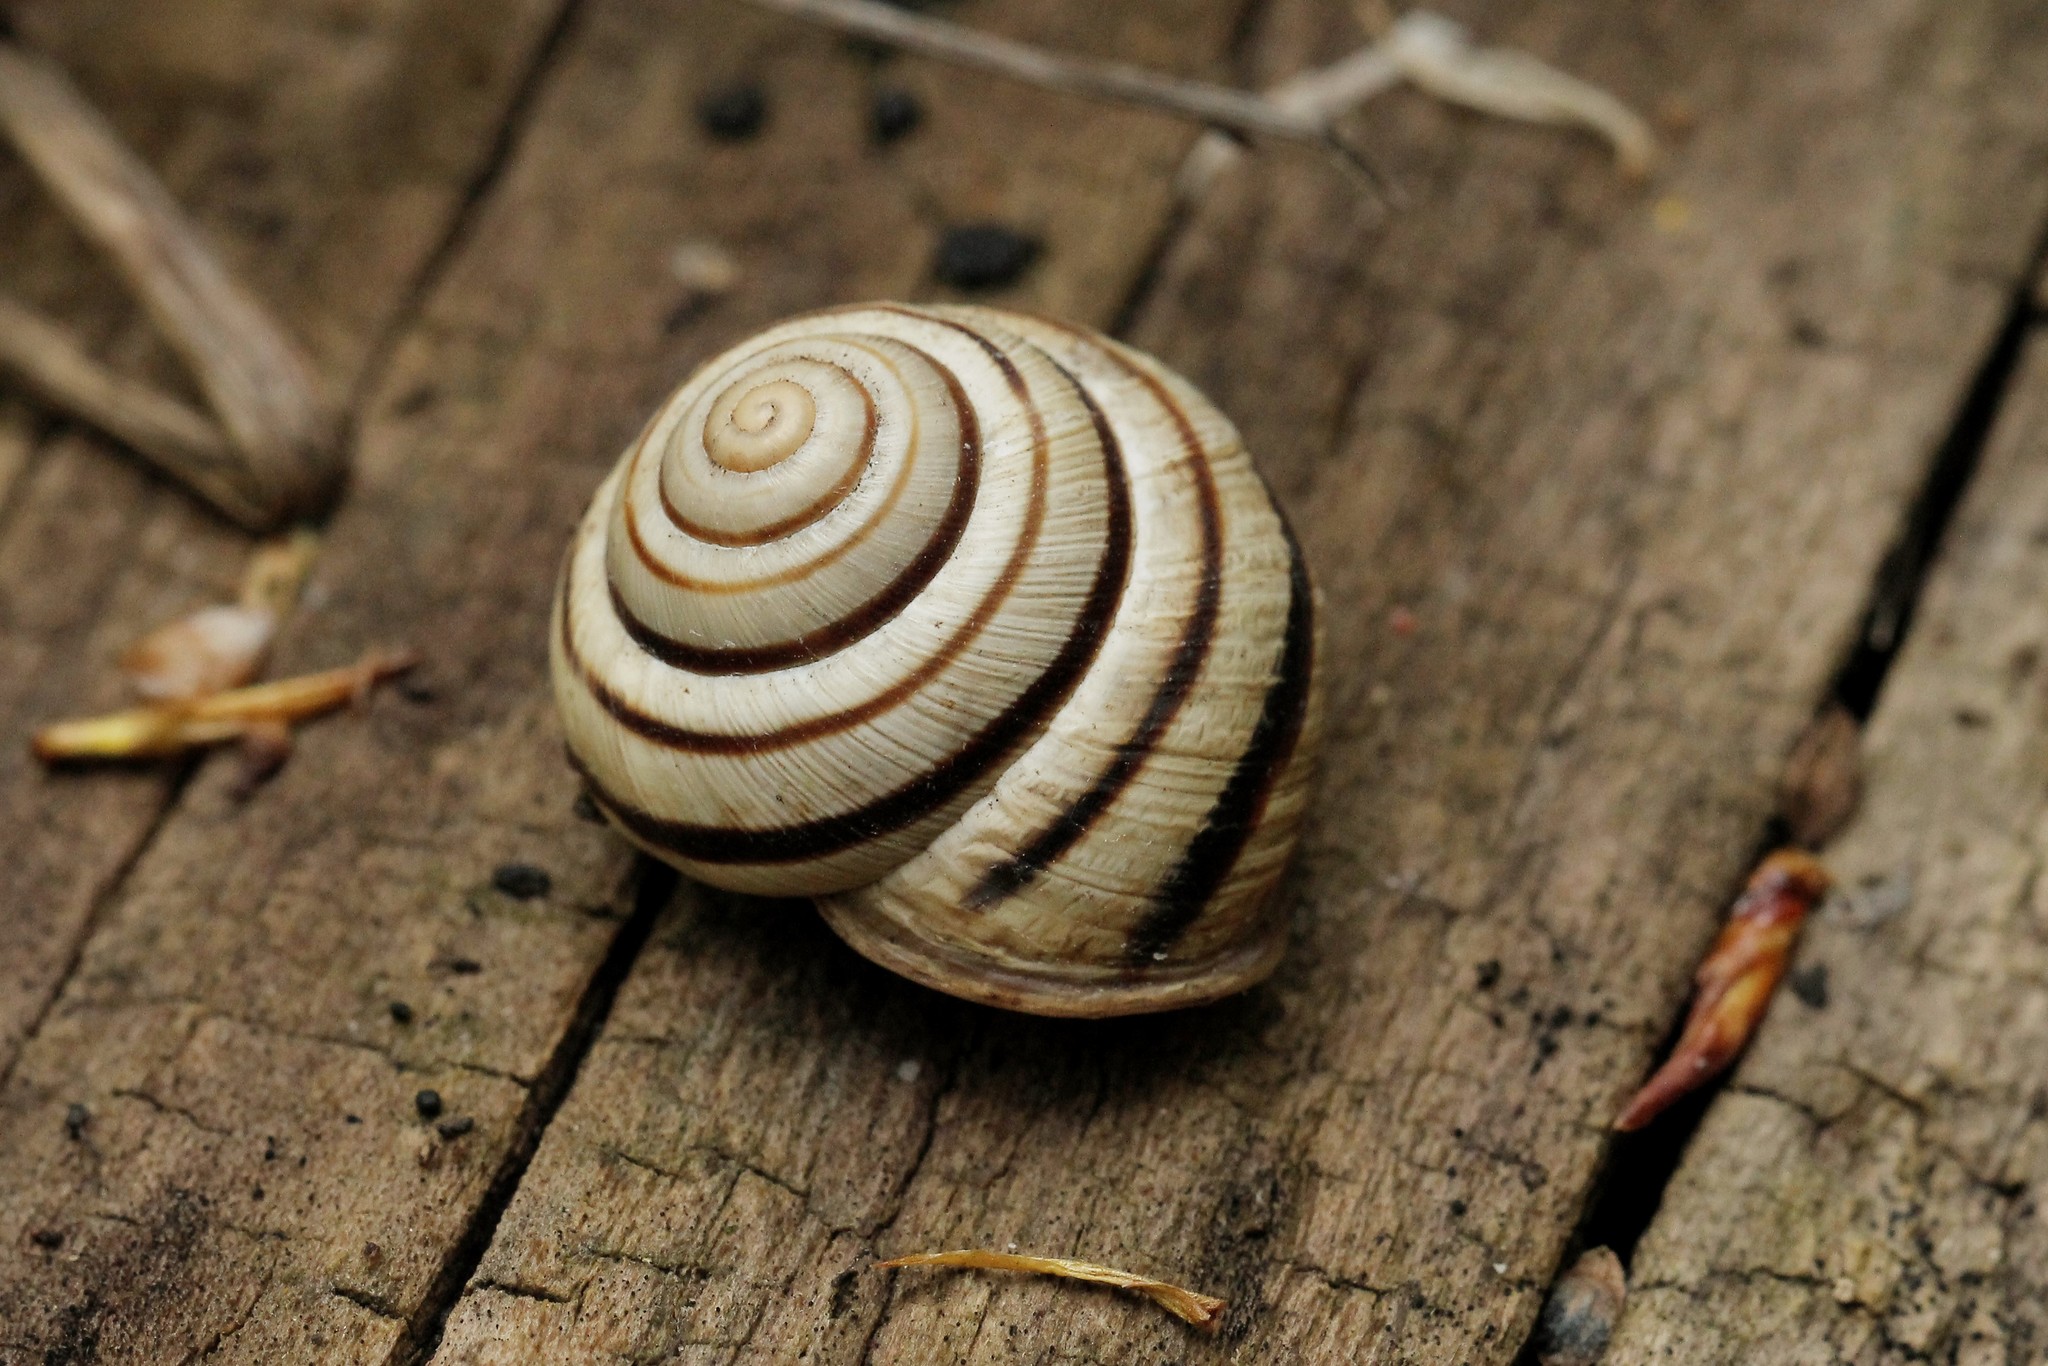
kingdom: Animalia
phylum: Mollusca
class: Gastropoda
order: Stylommatophora
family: Helicidae
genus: Caucasotachea
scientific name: Caucasotachea vindobonensis
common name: European helicid land snail
